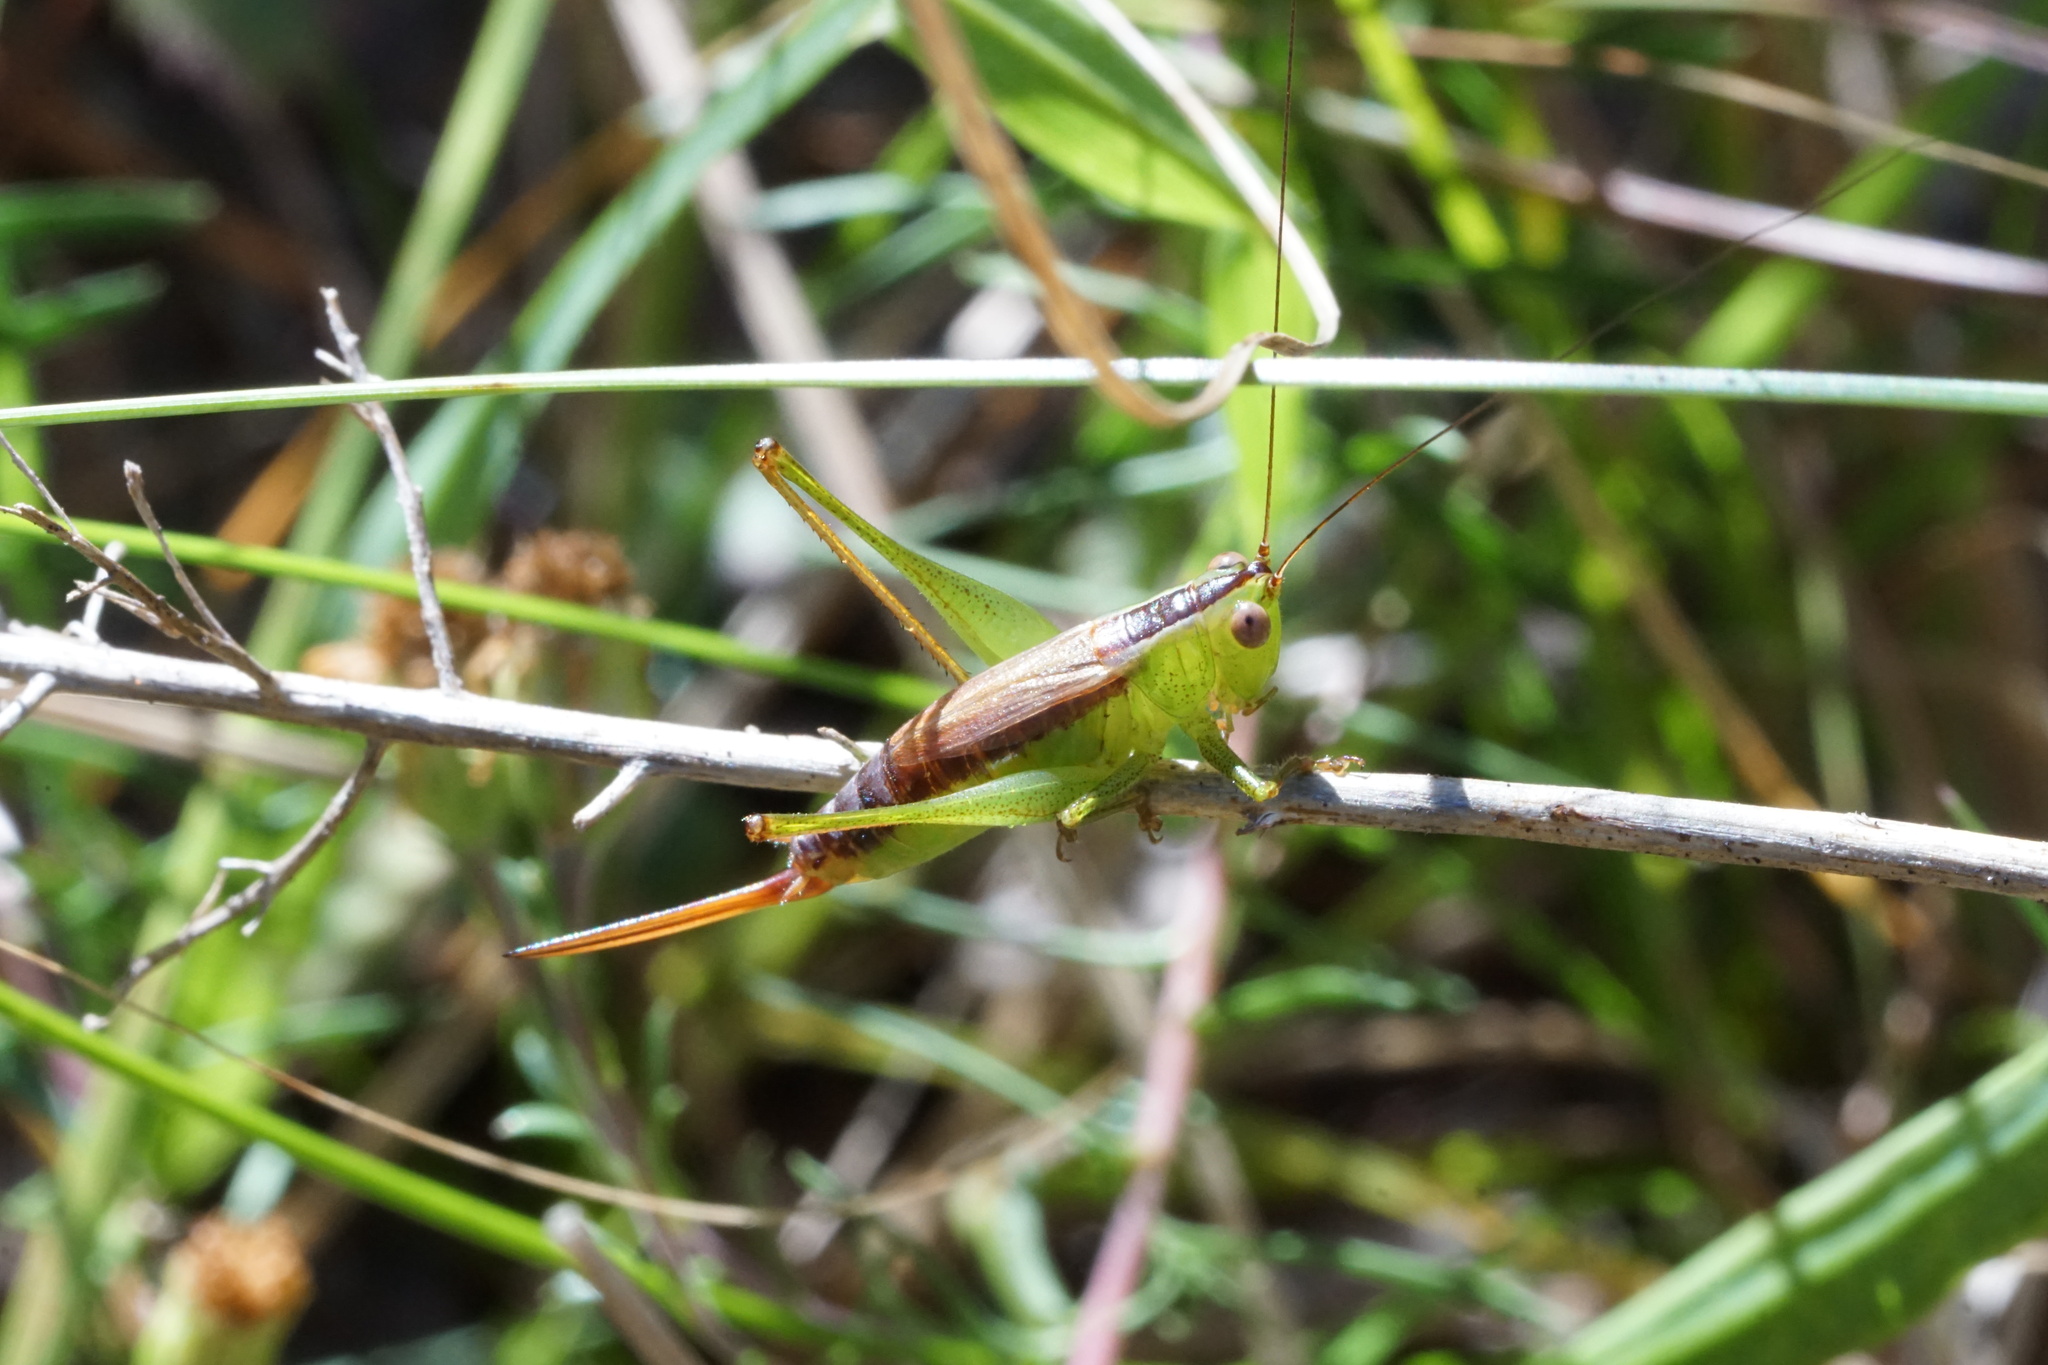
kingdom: Animalia
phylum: Arthropoda
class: Insecta
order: Orthoptera
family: Tettigoniidae
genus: Conocephalus
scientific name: Conocephalus brevipennis
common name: Short-winged meadow katydid
